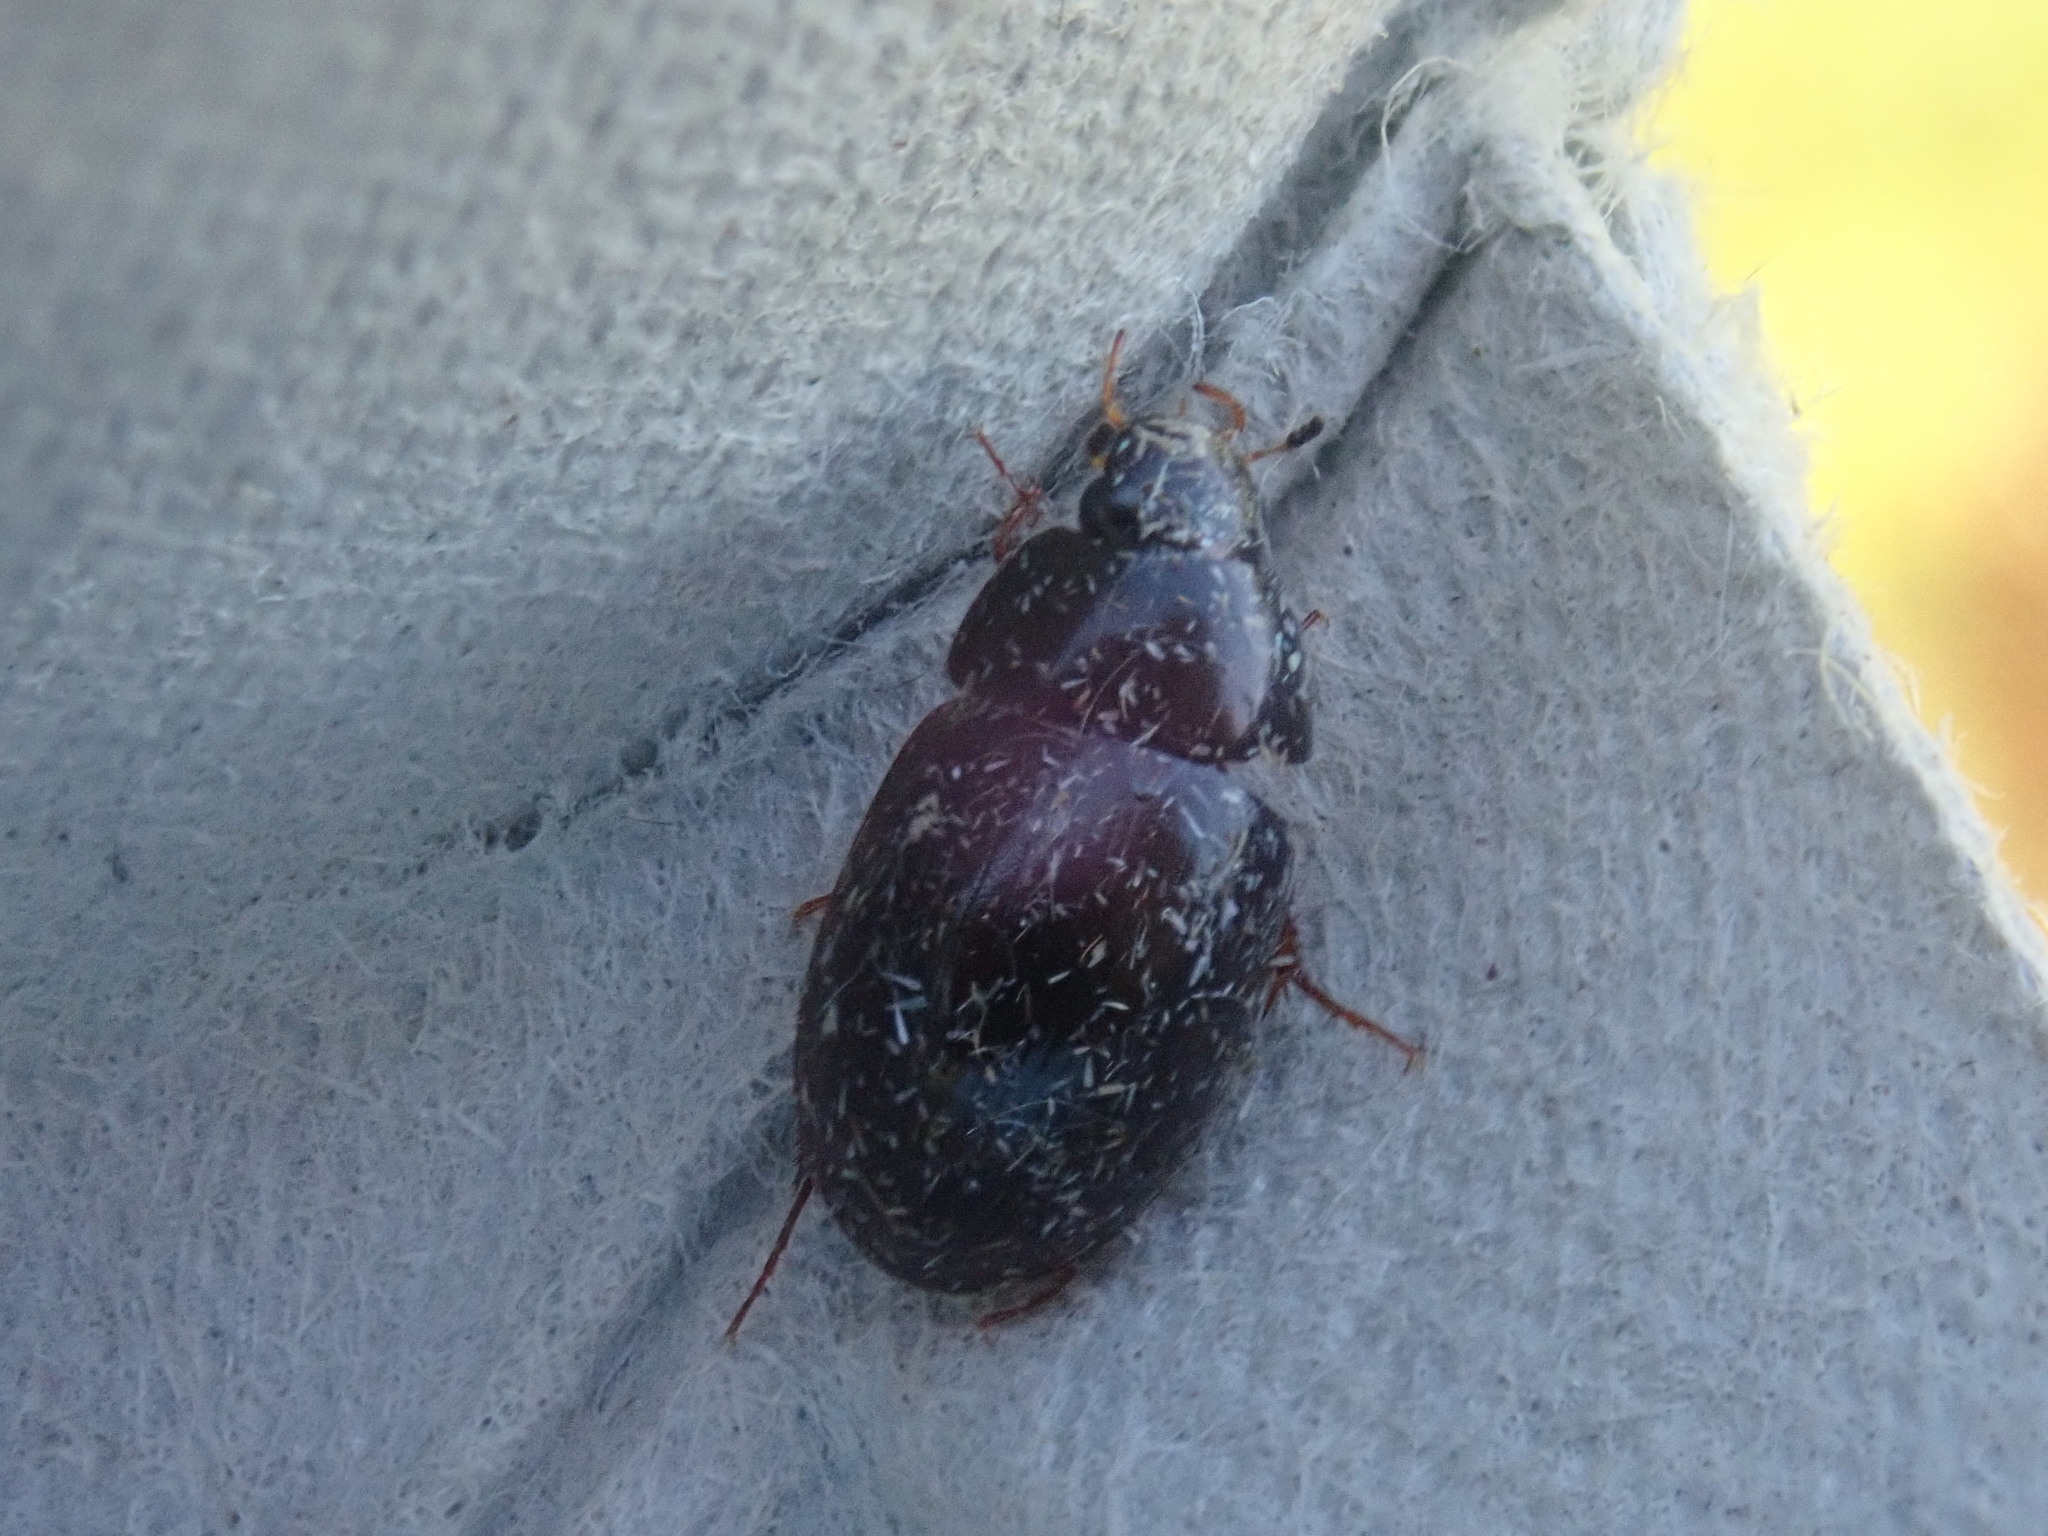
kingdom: Animalia
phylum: Arthropoda
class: Insecta
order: Coleoptera
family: Hydrophilidae
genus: Hydrobius
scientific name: Hydrobius fuscipes
